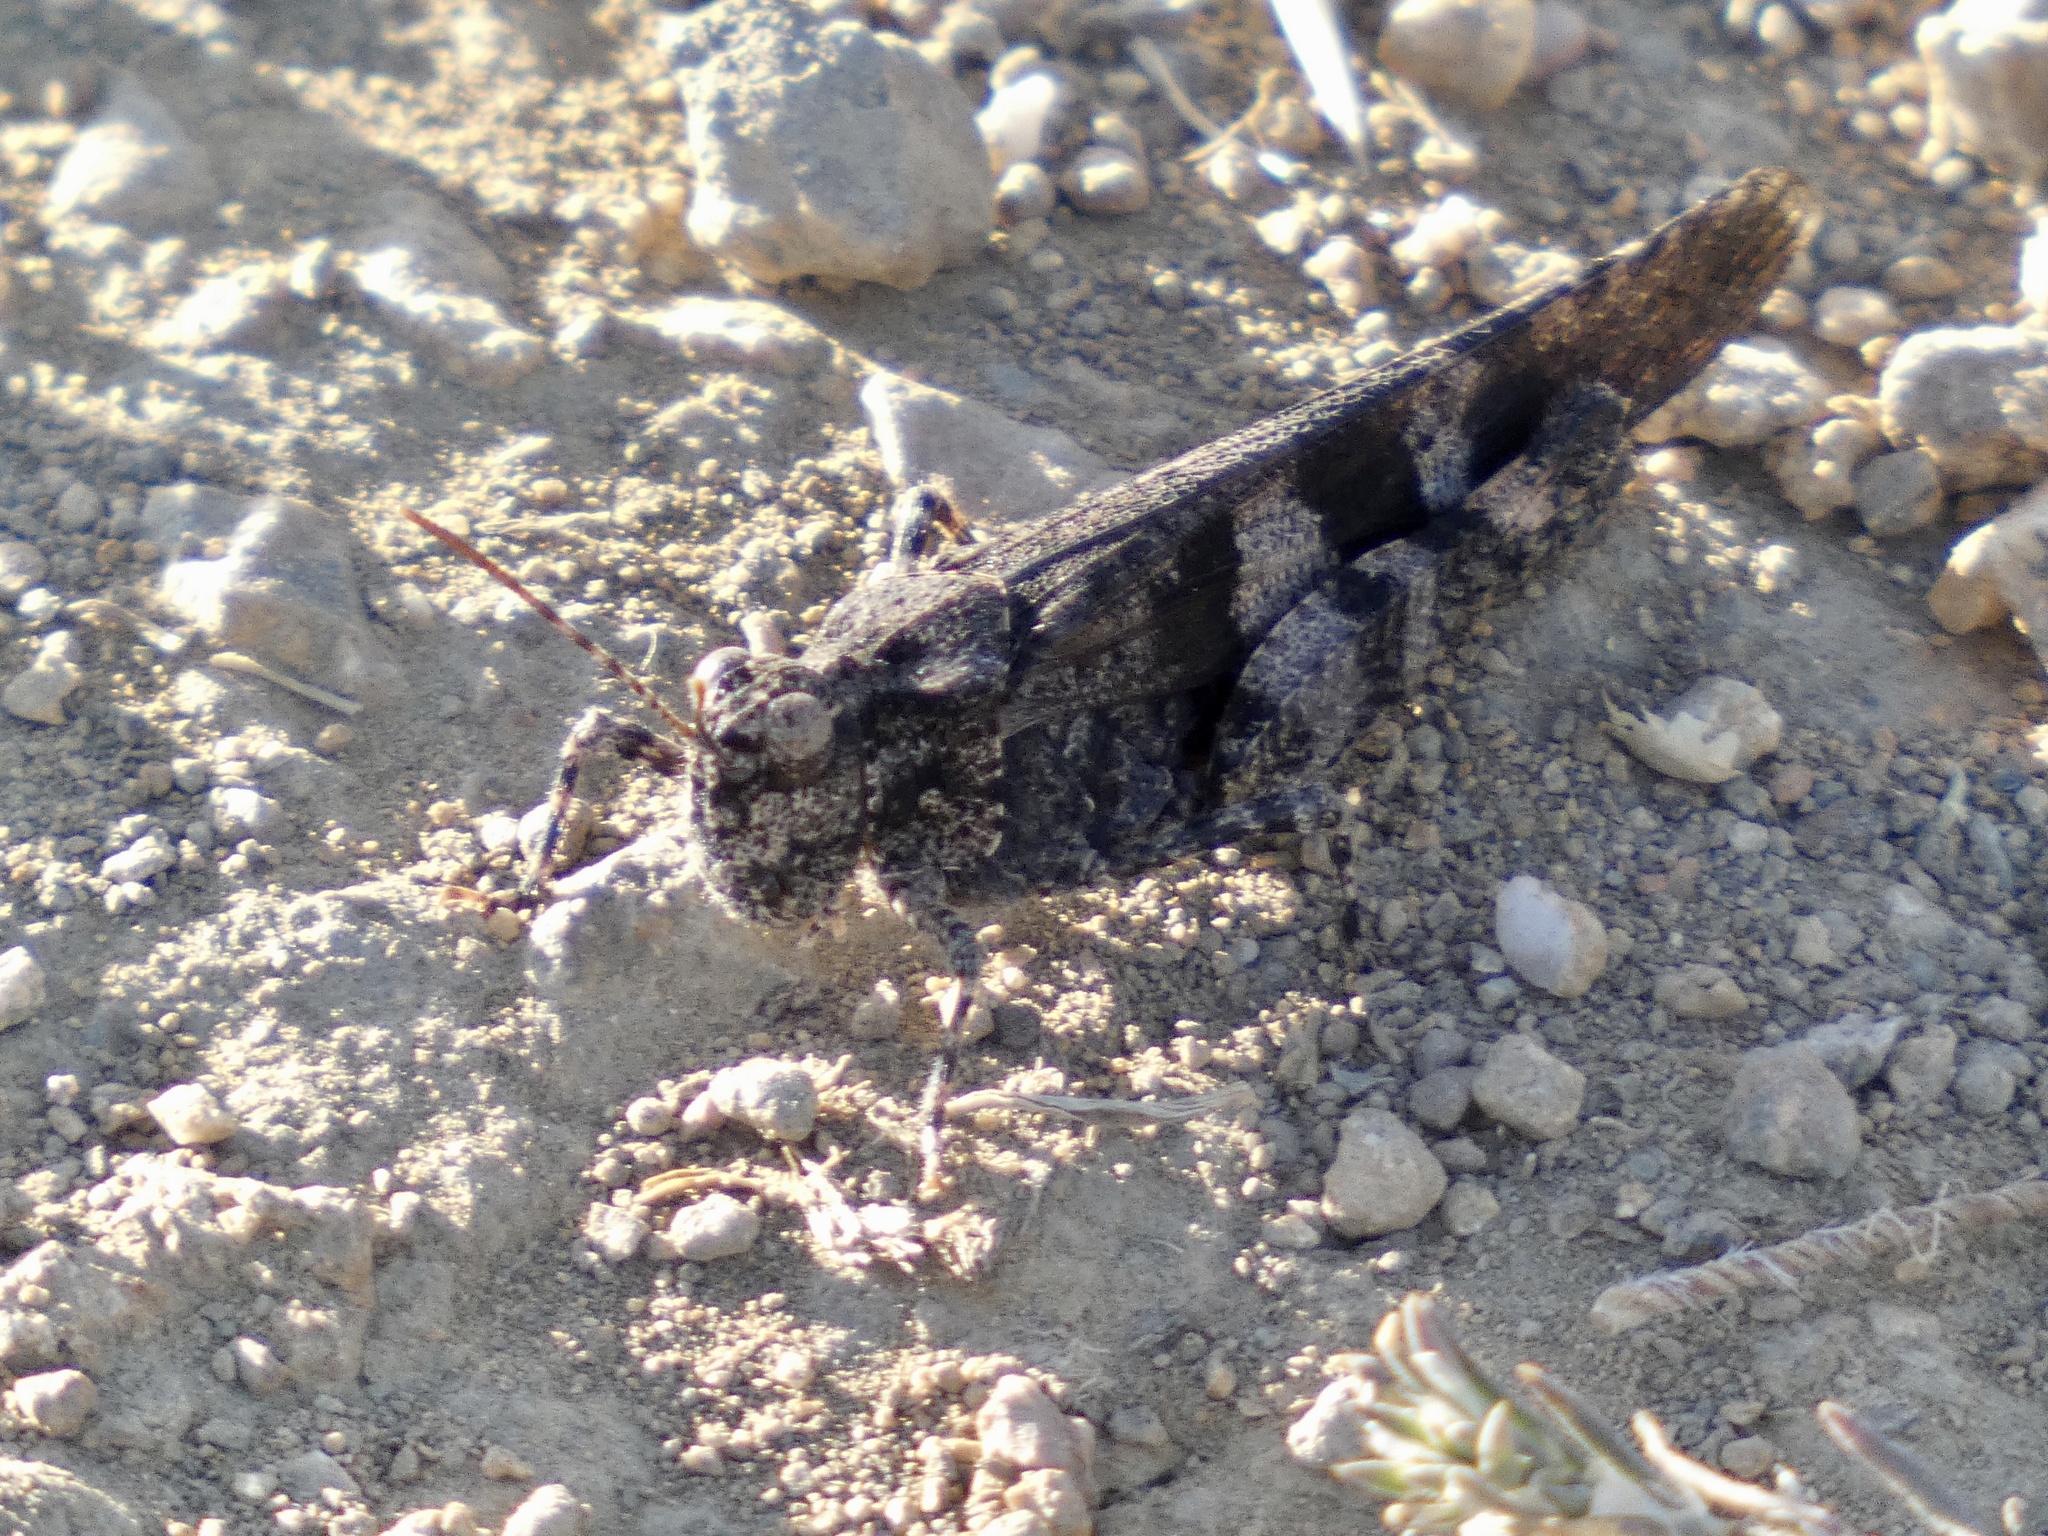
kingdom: Animalia
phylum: Arthropoda
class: Insecta
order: Orthoptera
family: Acrididae
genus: Trimerotropis
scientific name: Trimerotropis fontana
